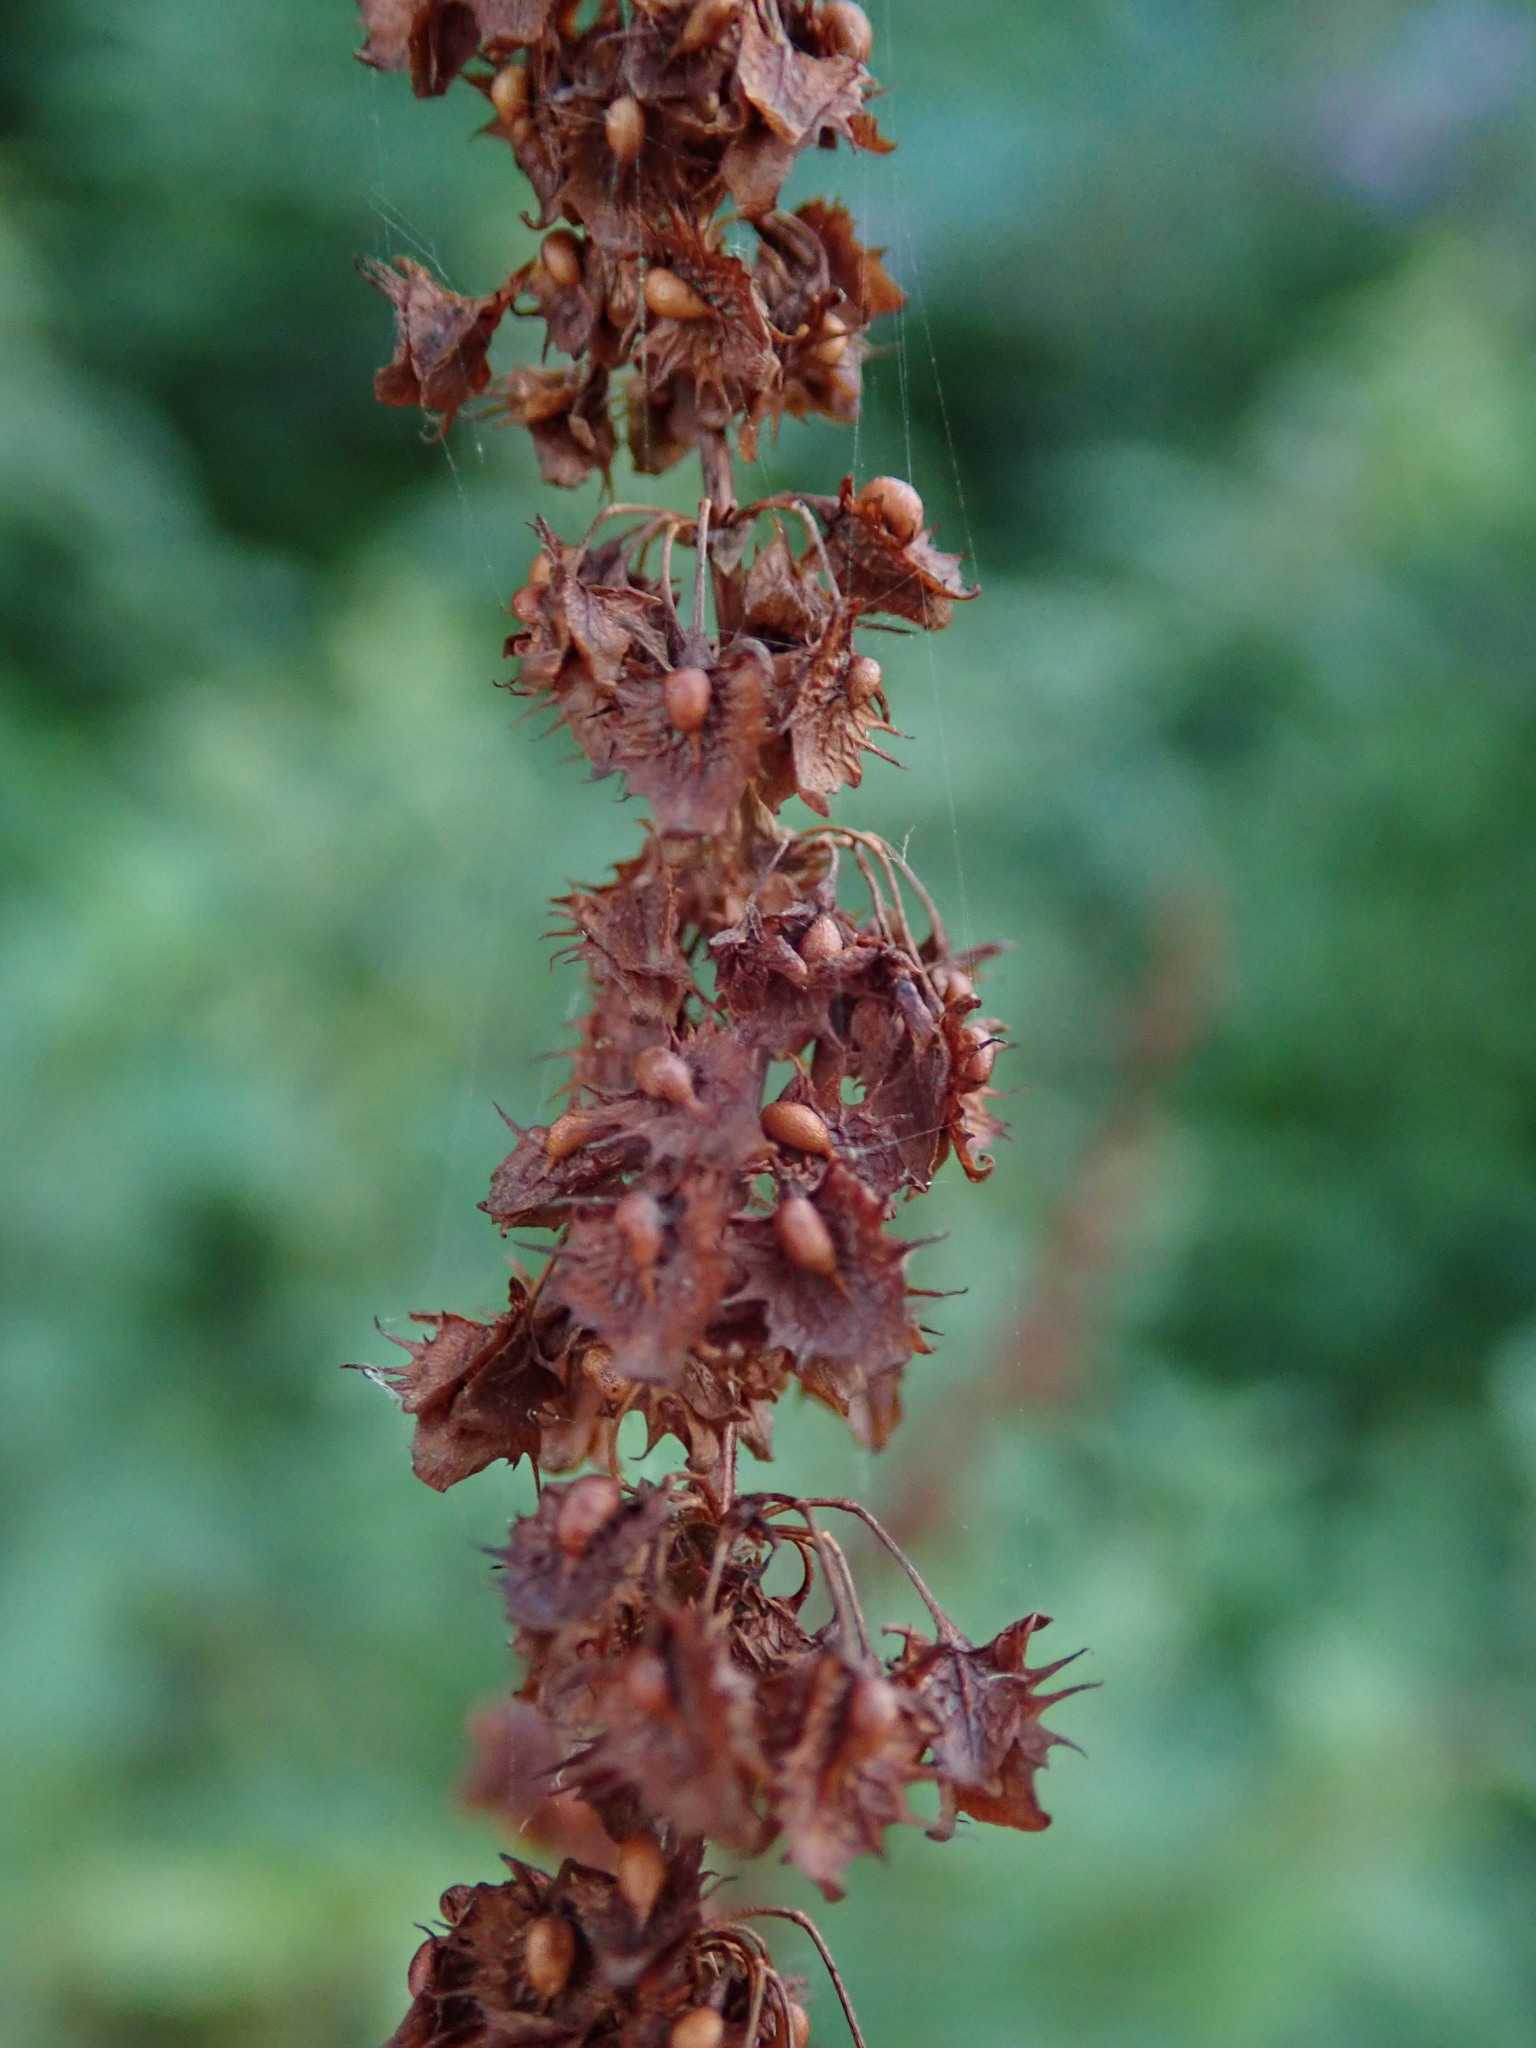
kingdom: Plantae
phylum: Tracheophyta
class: Magnoliopsida
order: Caryophyllales
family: Polygonaceae
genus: Rumex
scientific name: Rumex obtusifolius
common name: Bitter dock
